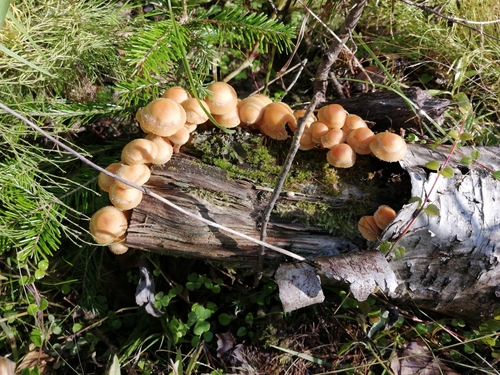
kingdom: Fungi
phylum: Basidiomycota
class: Agaricomycetes
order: Agaricales
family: Strophariaceae
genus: Kuehneromyces
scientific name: Kuehneromyces mutabilis
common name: Sheathed woodtuft
